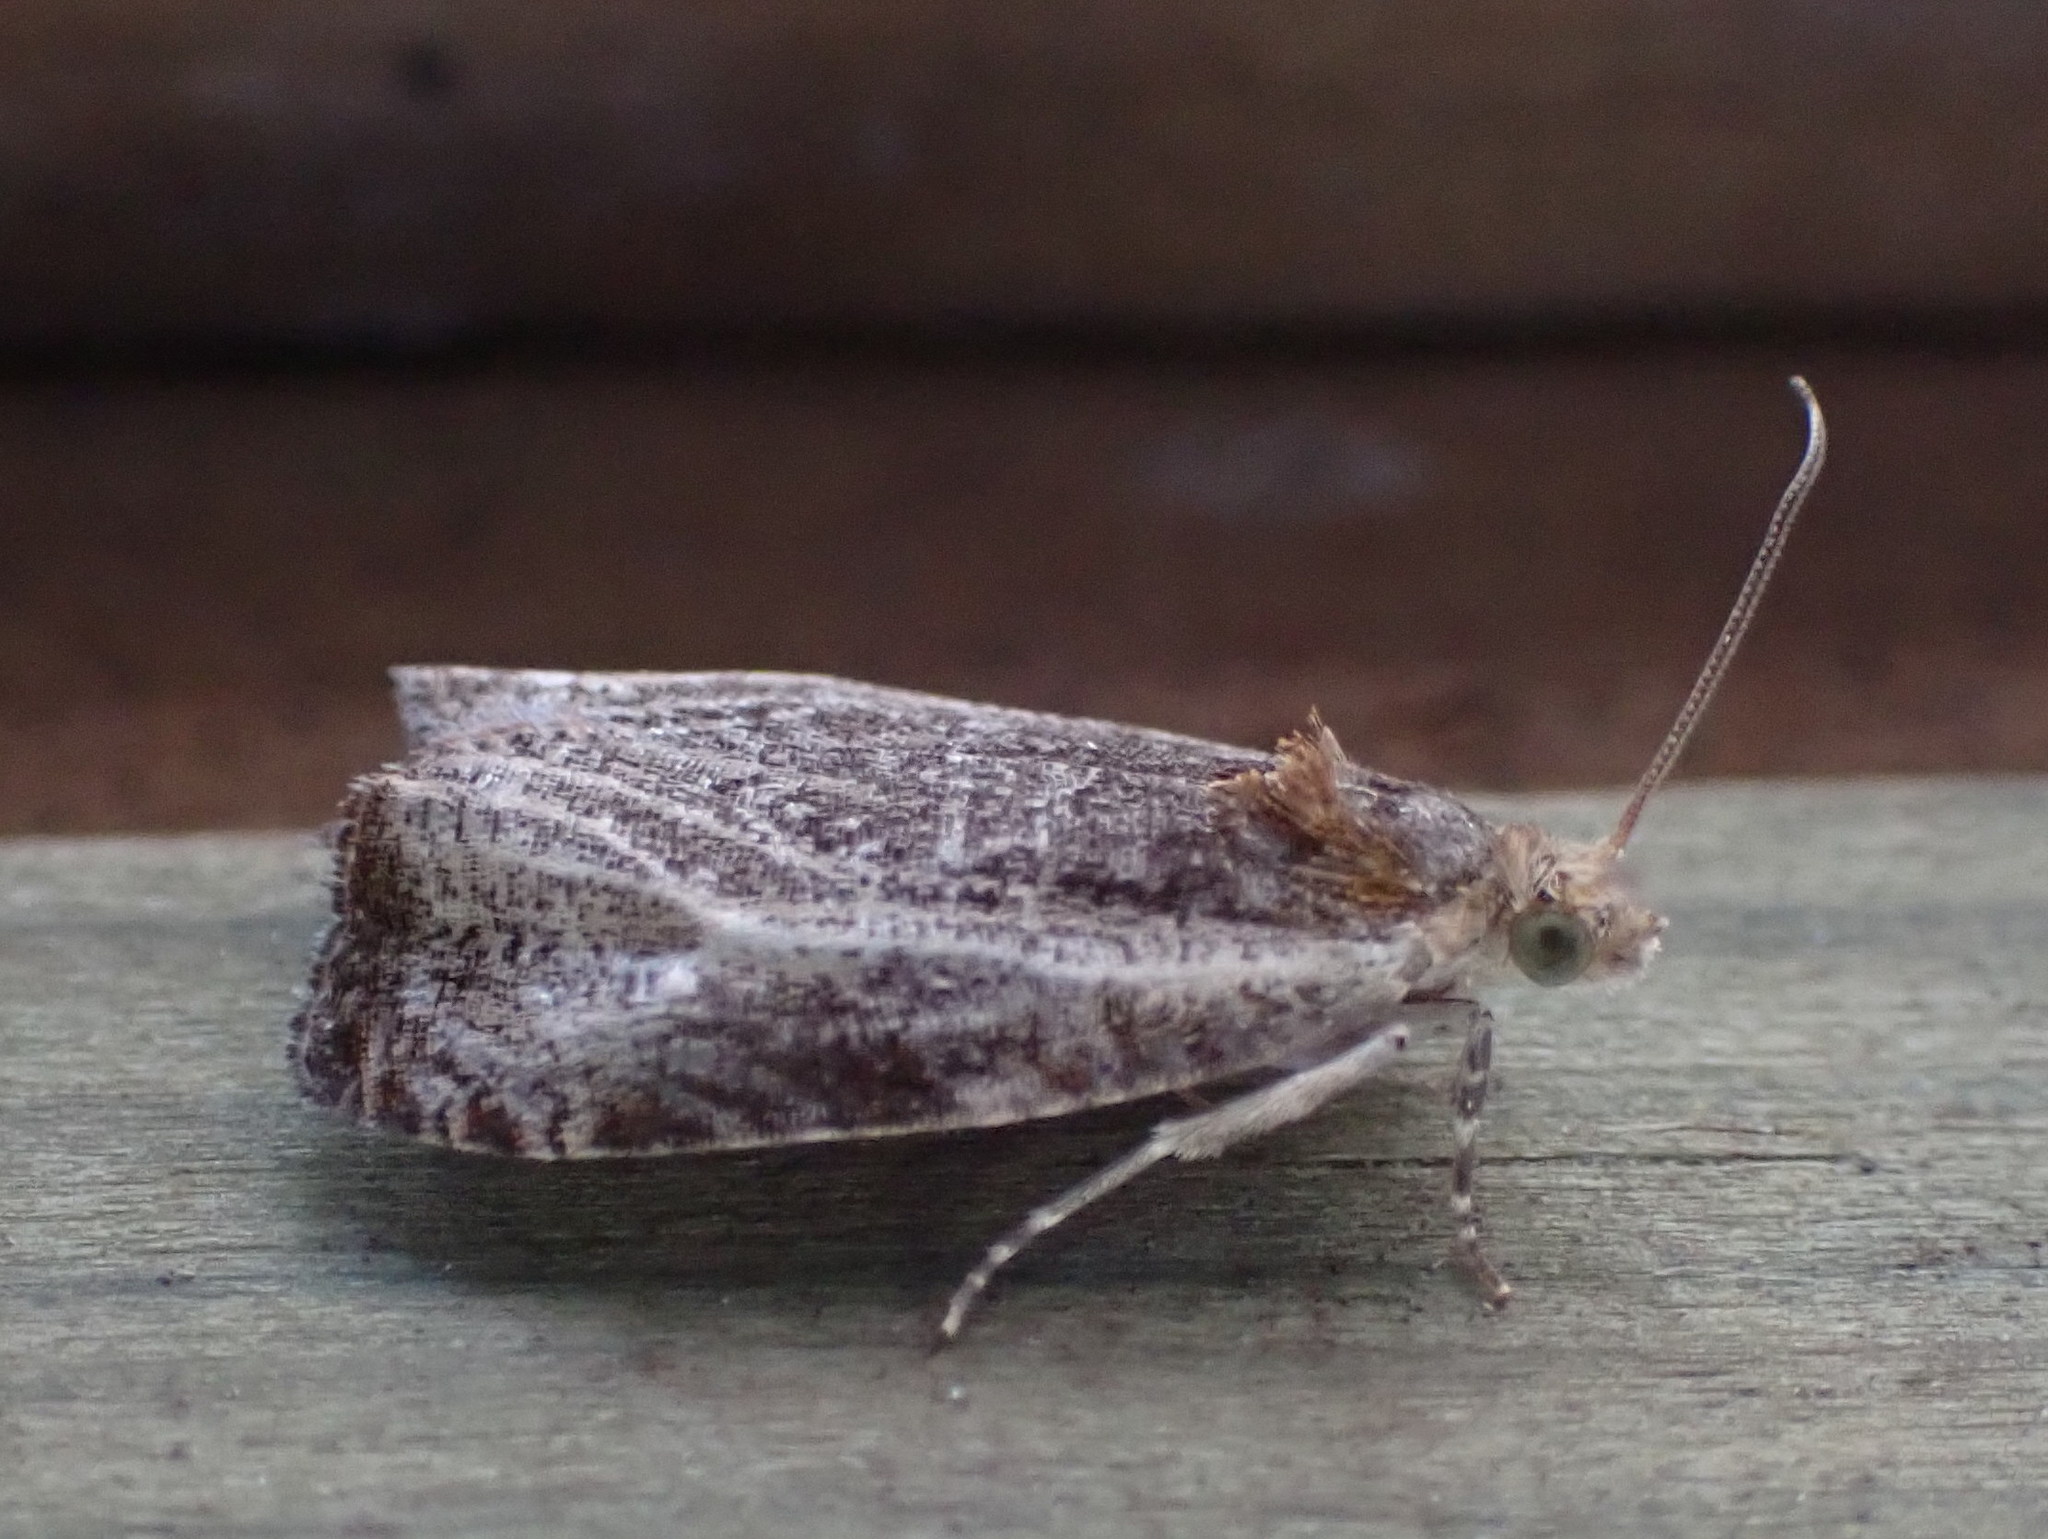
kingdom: Animalia
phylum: Arthropoda
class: Insecta
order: Lepidoptera
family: Tortricidae
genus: Olethreutes
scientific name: Olethreutes quadrifidum
